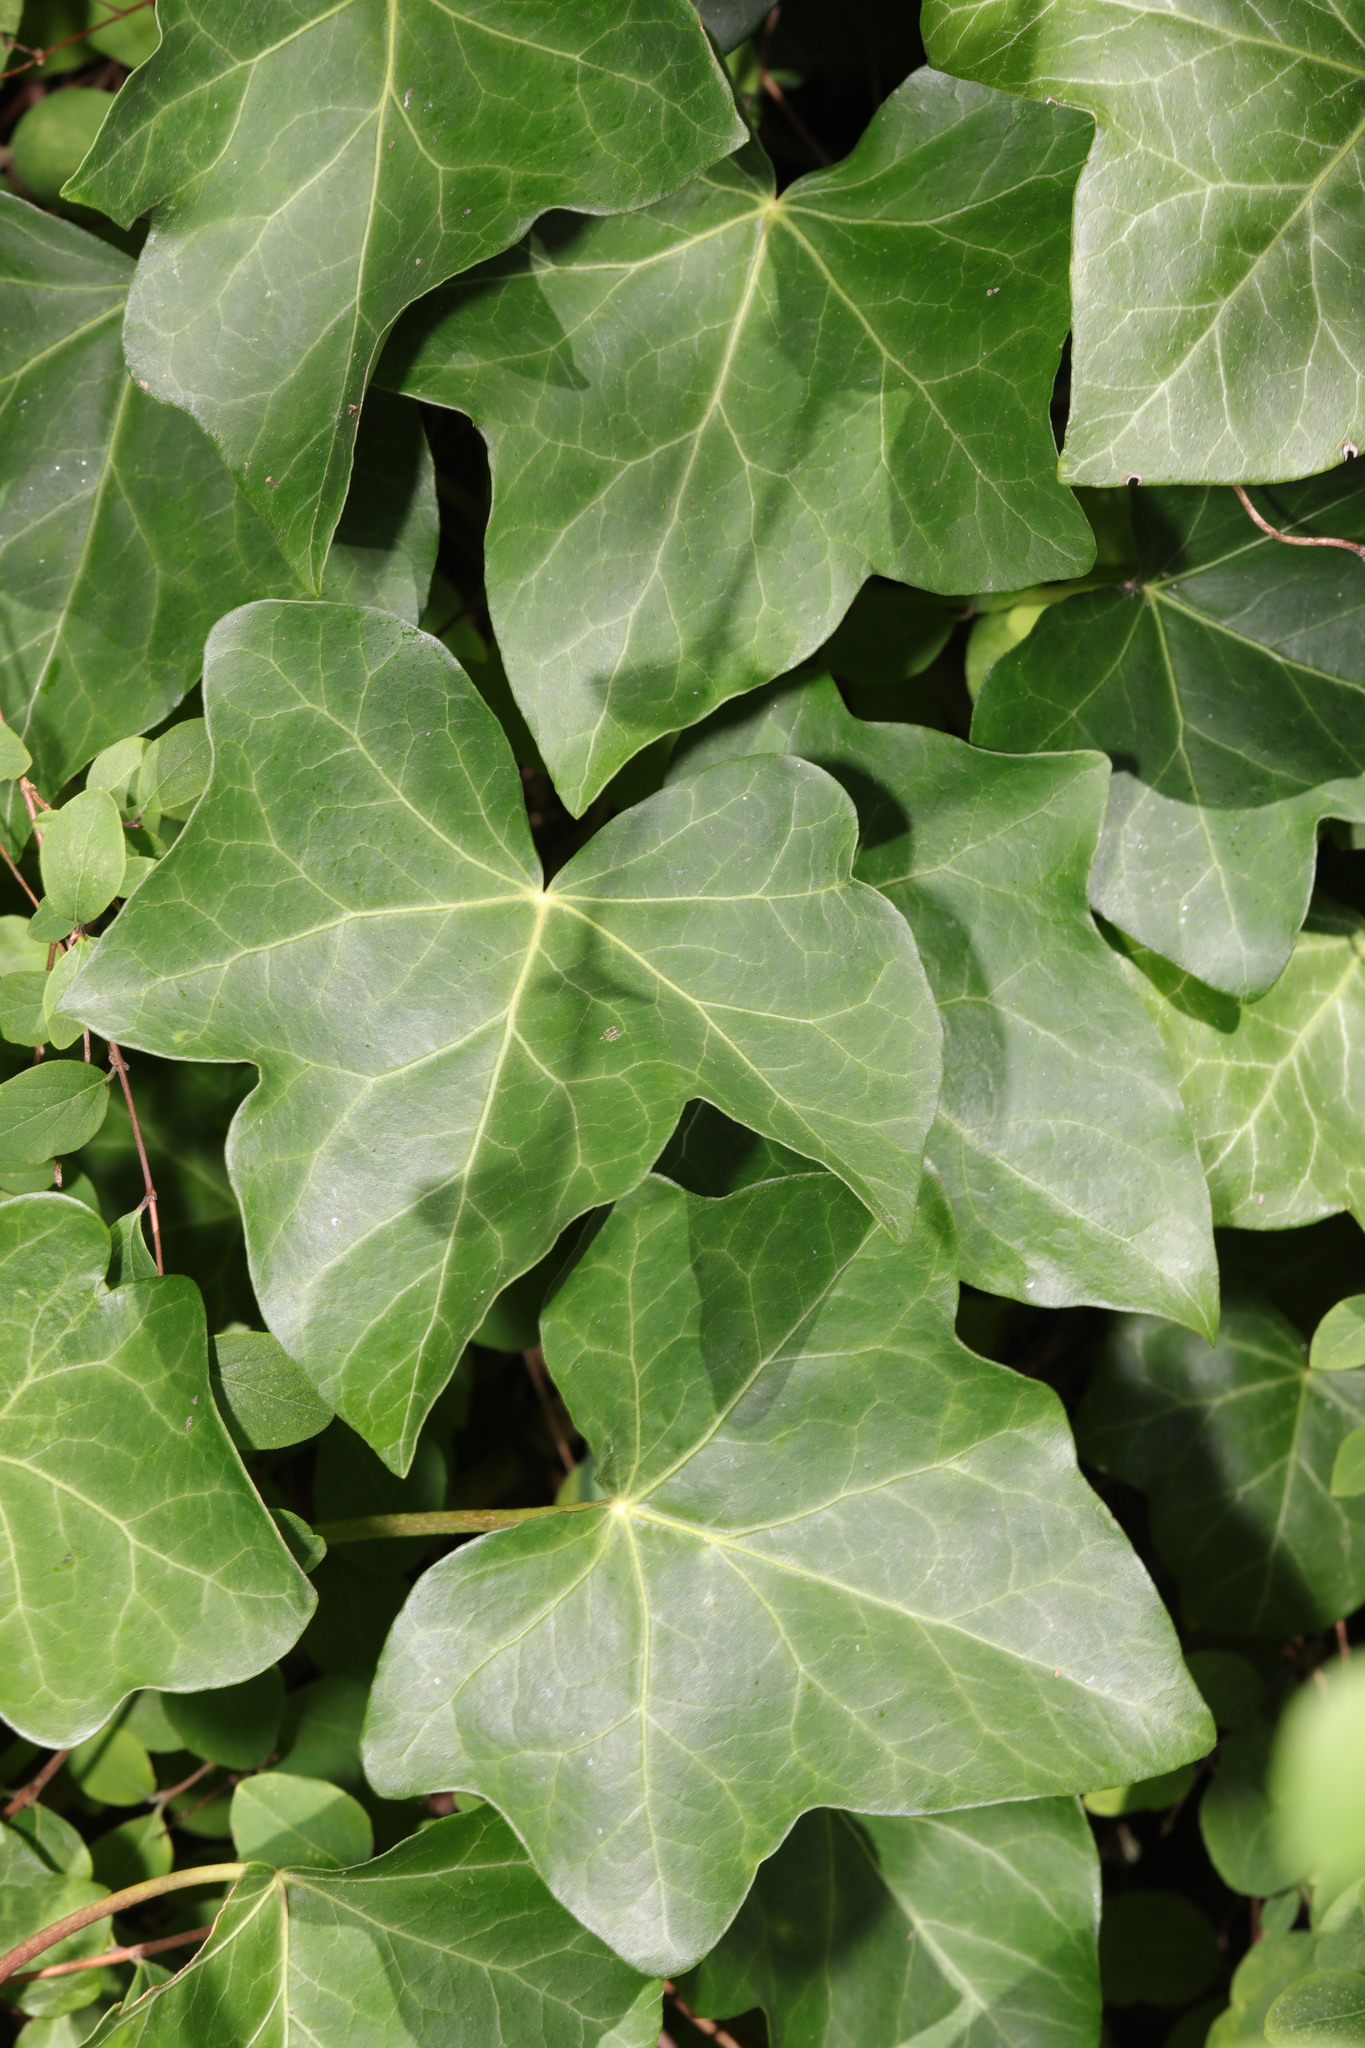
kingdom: Plantae
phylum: Tracheophyta
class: Magnoliopsida
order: Apiales
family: Araliaceae
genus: Hedera
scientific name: Hedera helix
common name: Ivy
